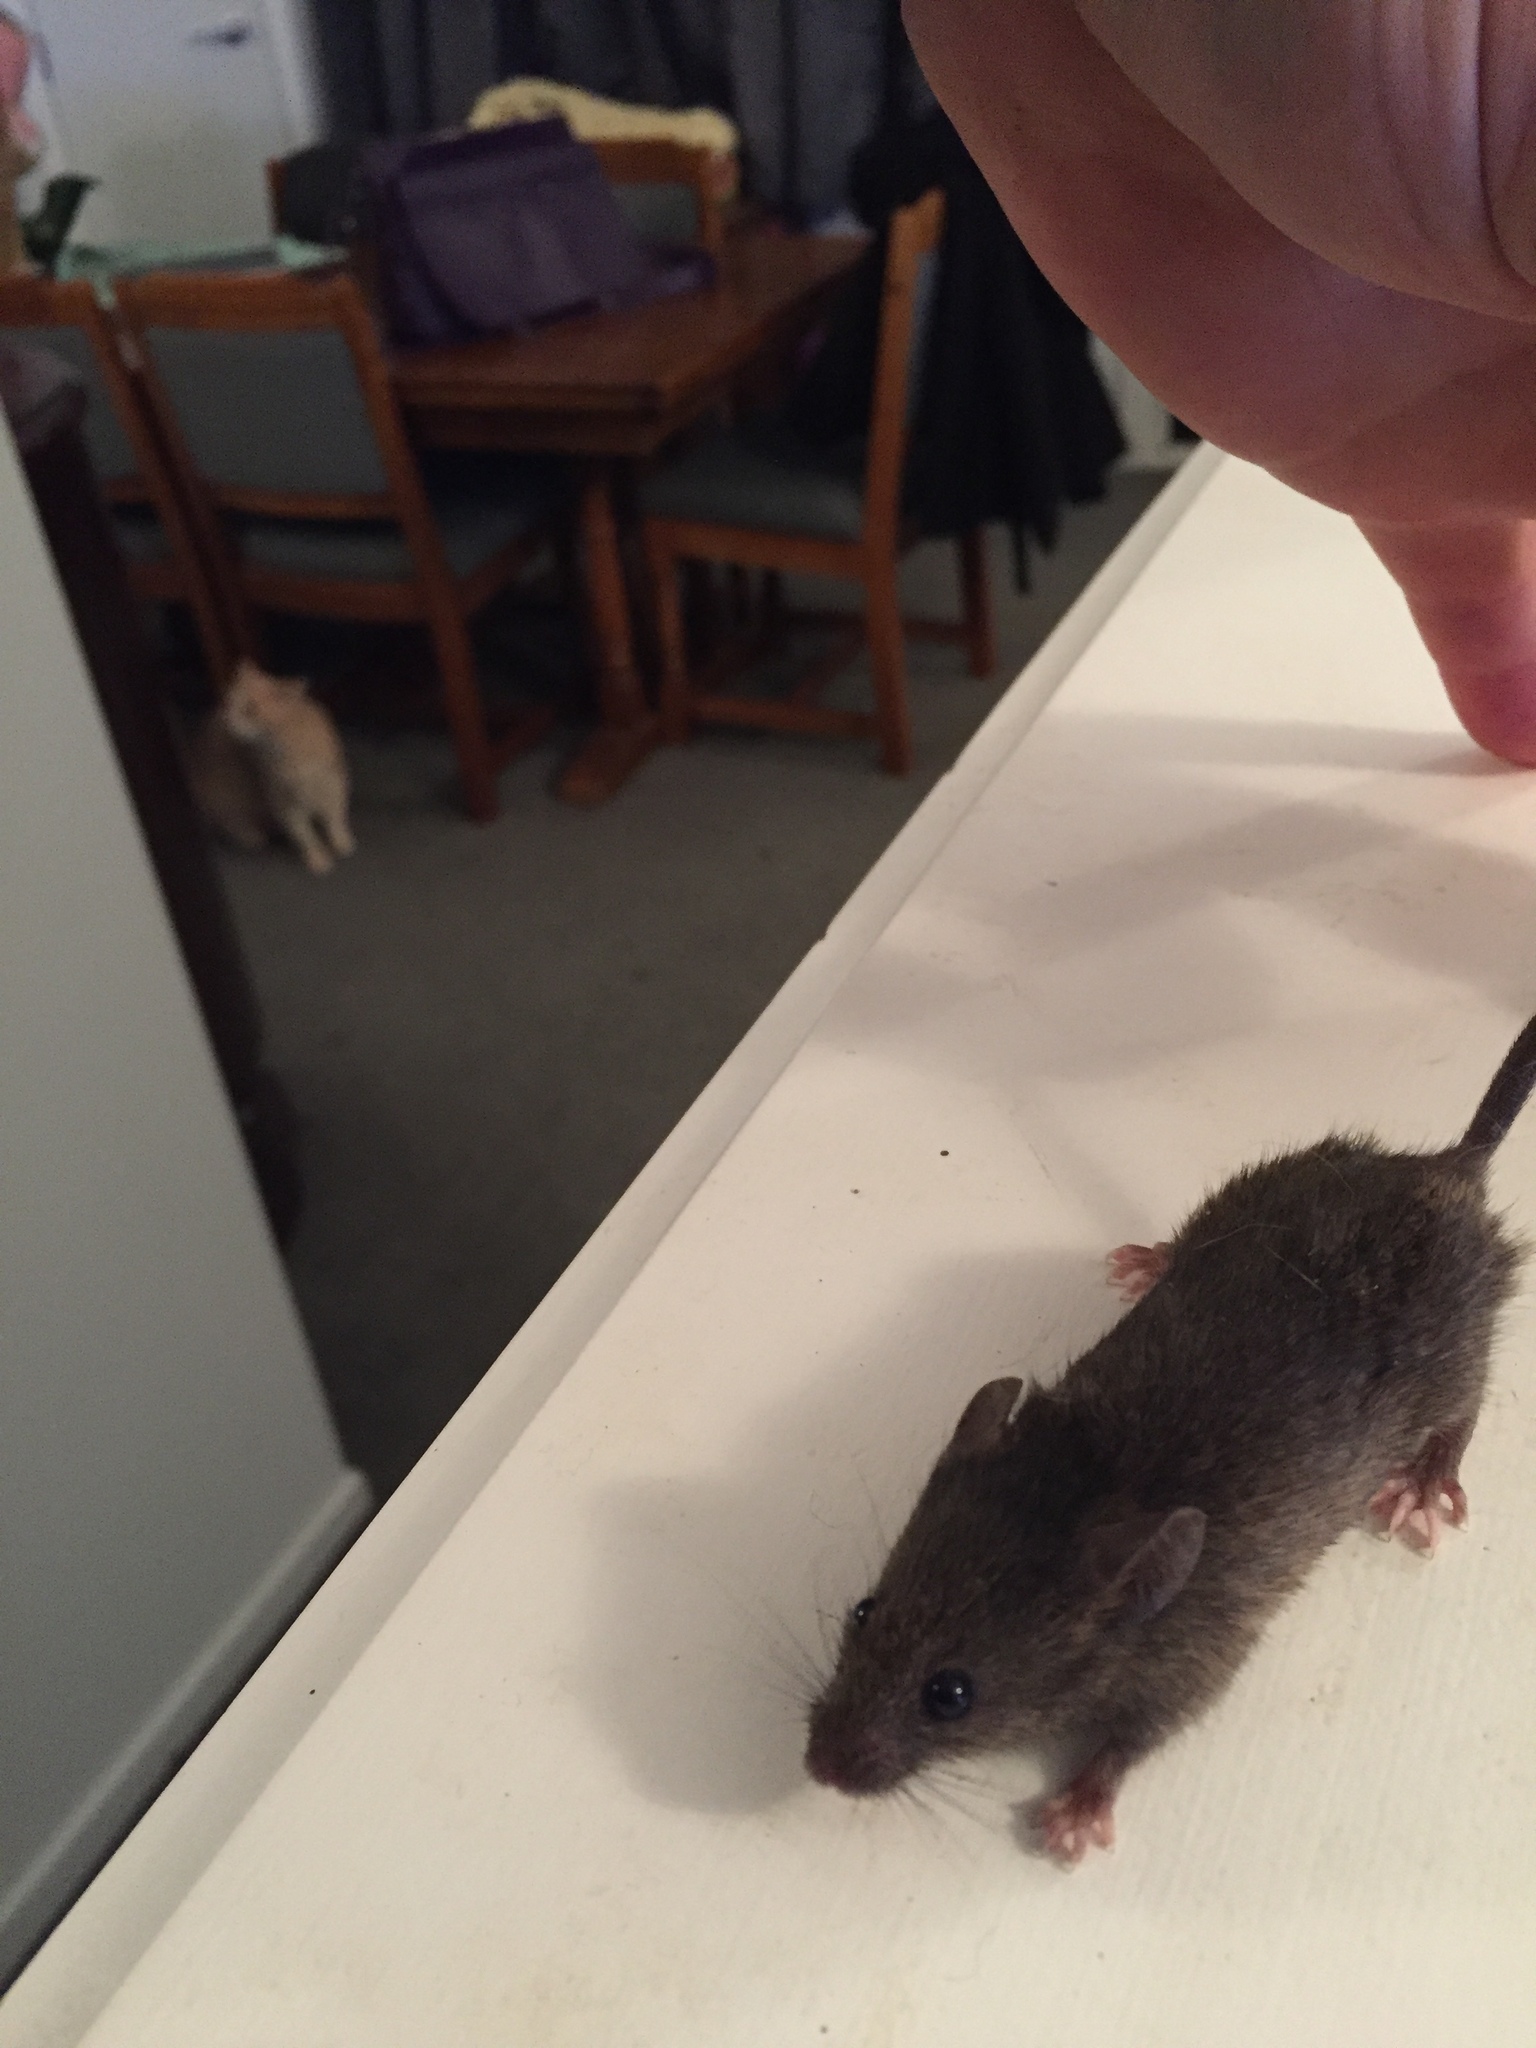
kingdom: Animalia
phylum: Chordata
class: Mammalia
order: Rodentia
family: Muridae
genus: Mus
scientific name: Mus musculus
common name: House mouse
